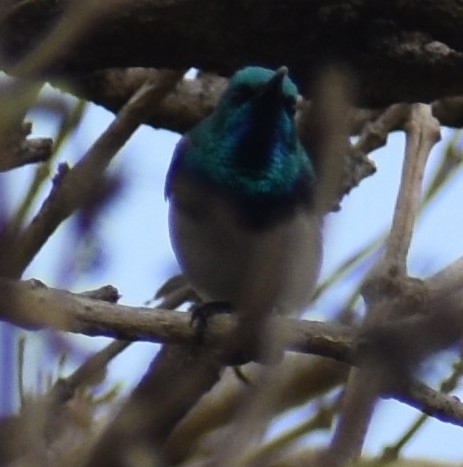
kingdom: Animalia
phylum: Chordata
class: Aves
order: Passeriformes
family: Nectariniidae
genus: Cinnyris
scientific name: Cinnyris talatala
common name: White-bellied sunbird
